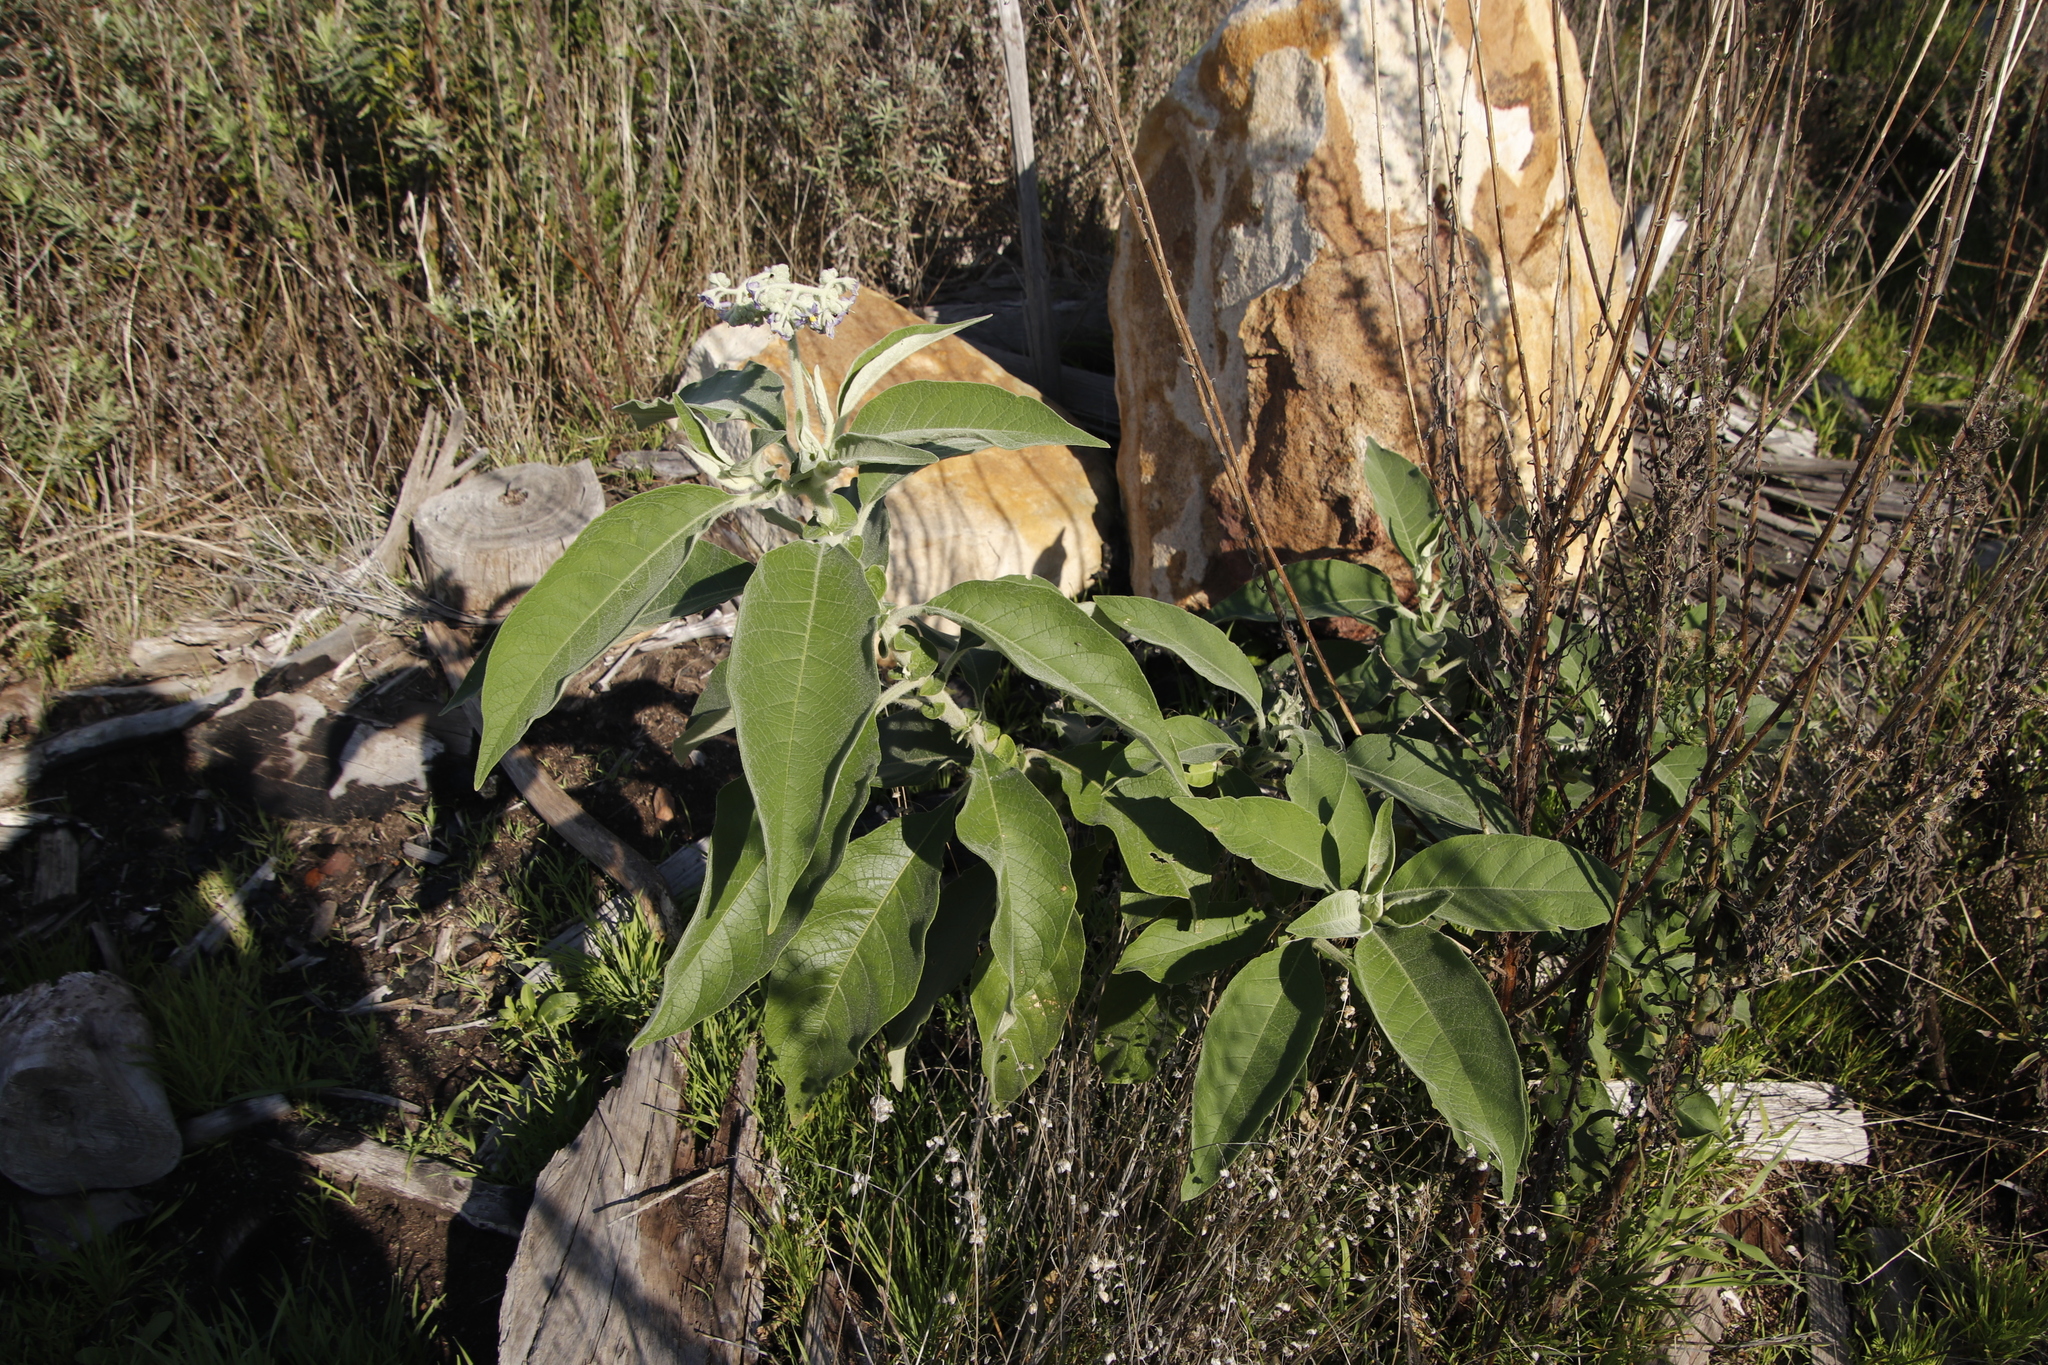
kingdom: Plantae
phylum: Tracheophyta
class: Magnoliopsida
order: Solanales
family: Solanaceae
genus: Solanum
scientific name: Solanum mauritianum
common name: Earleaf nightshade
